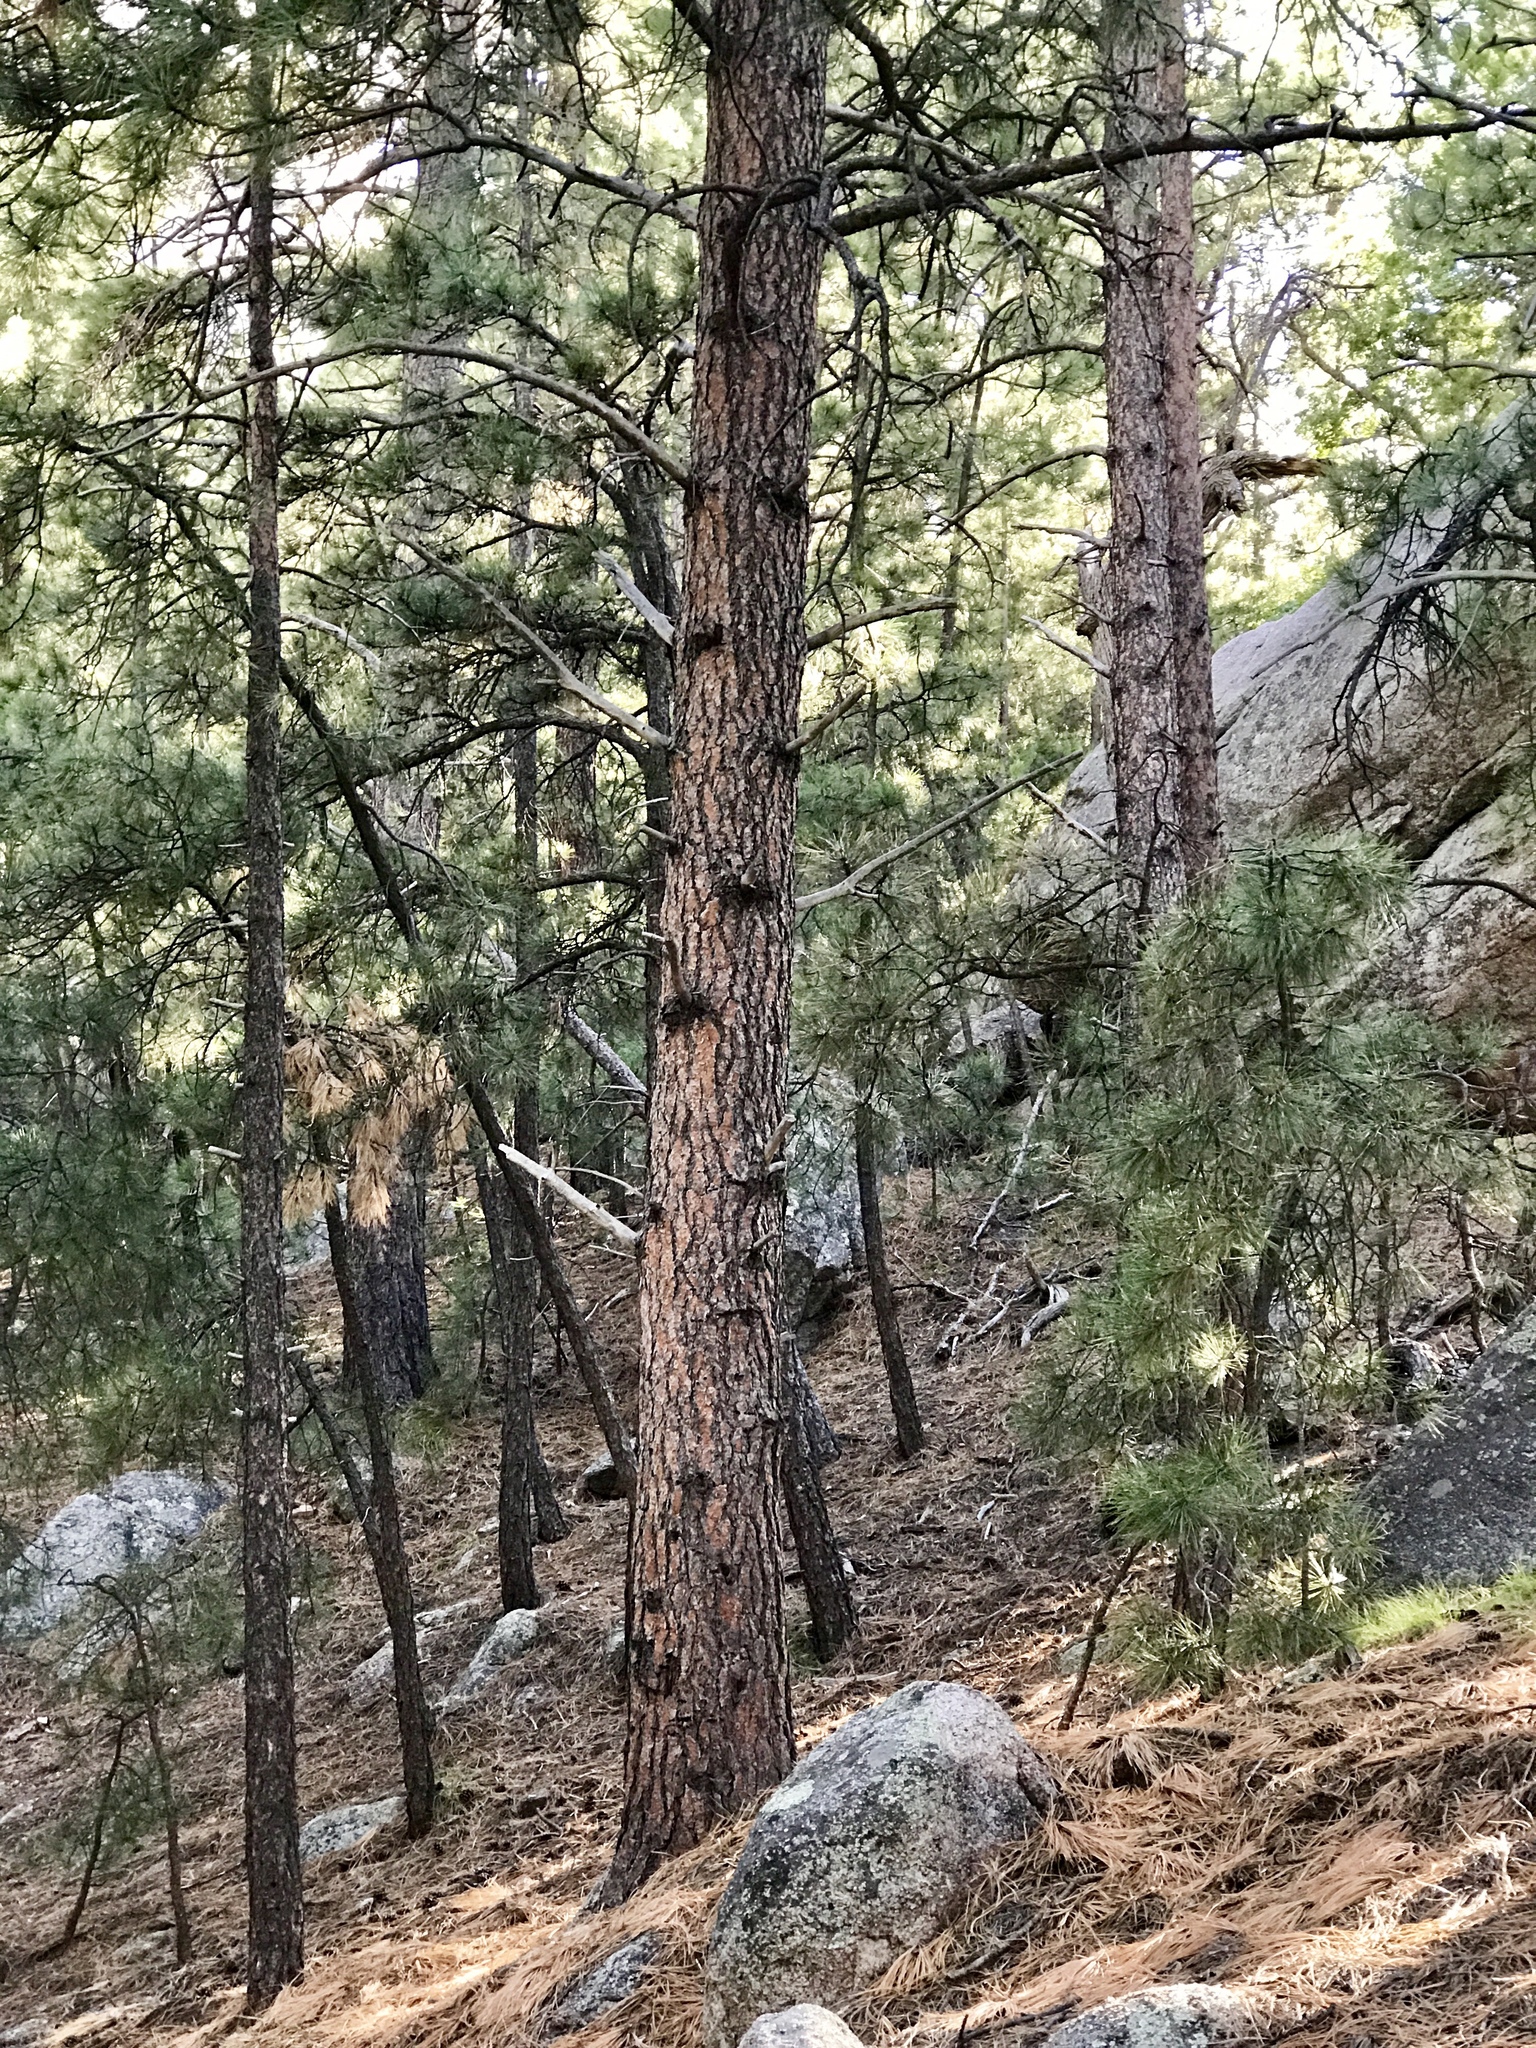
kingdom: Plantae
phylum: Tracheophyta
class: Pinopsida
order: Pinales
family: Pinaceae
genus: Pinus
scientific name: Pinus ponderosa
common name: Western yellow-pine
